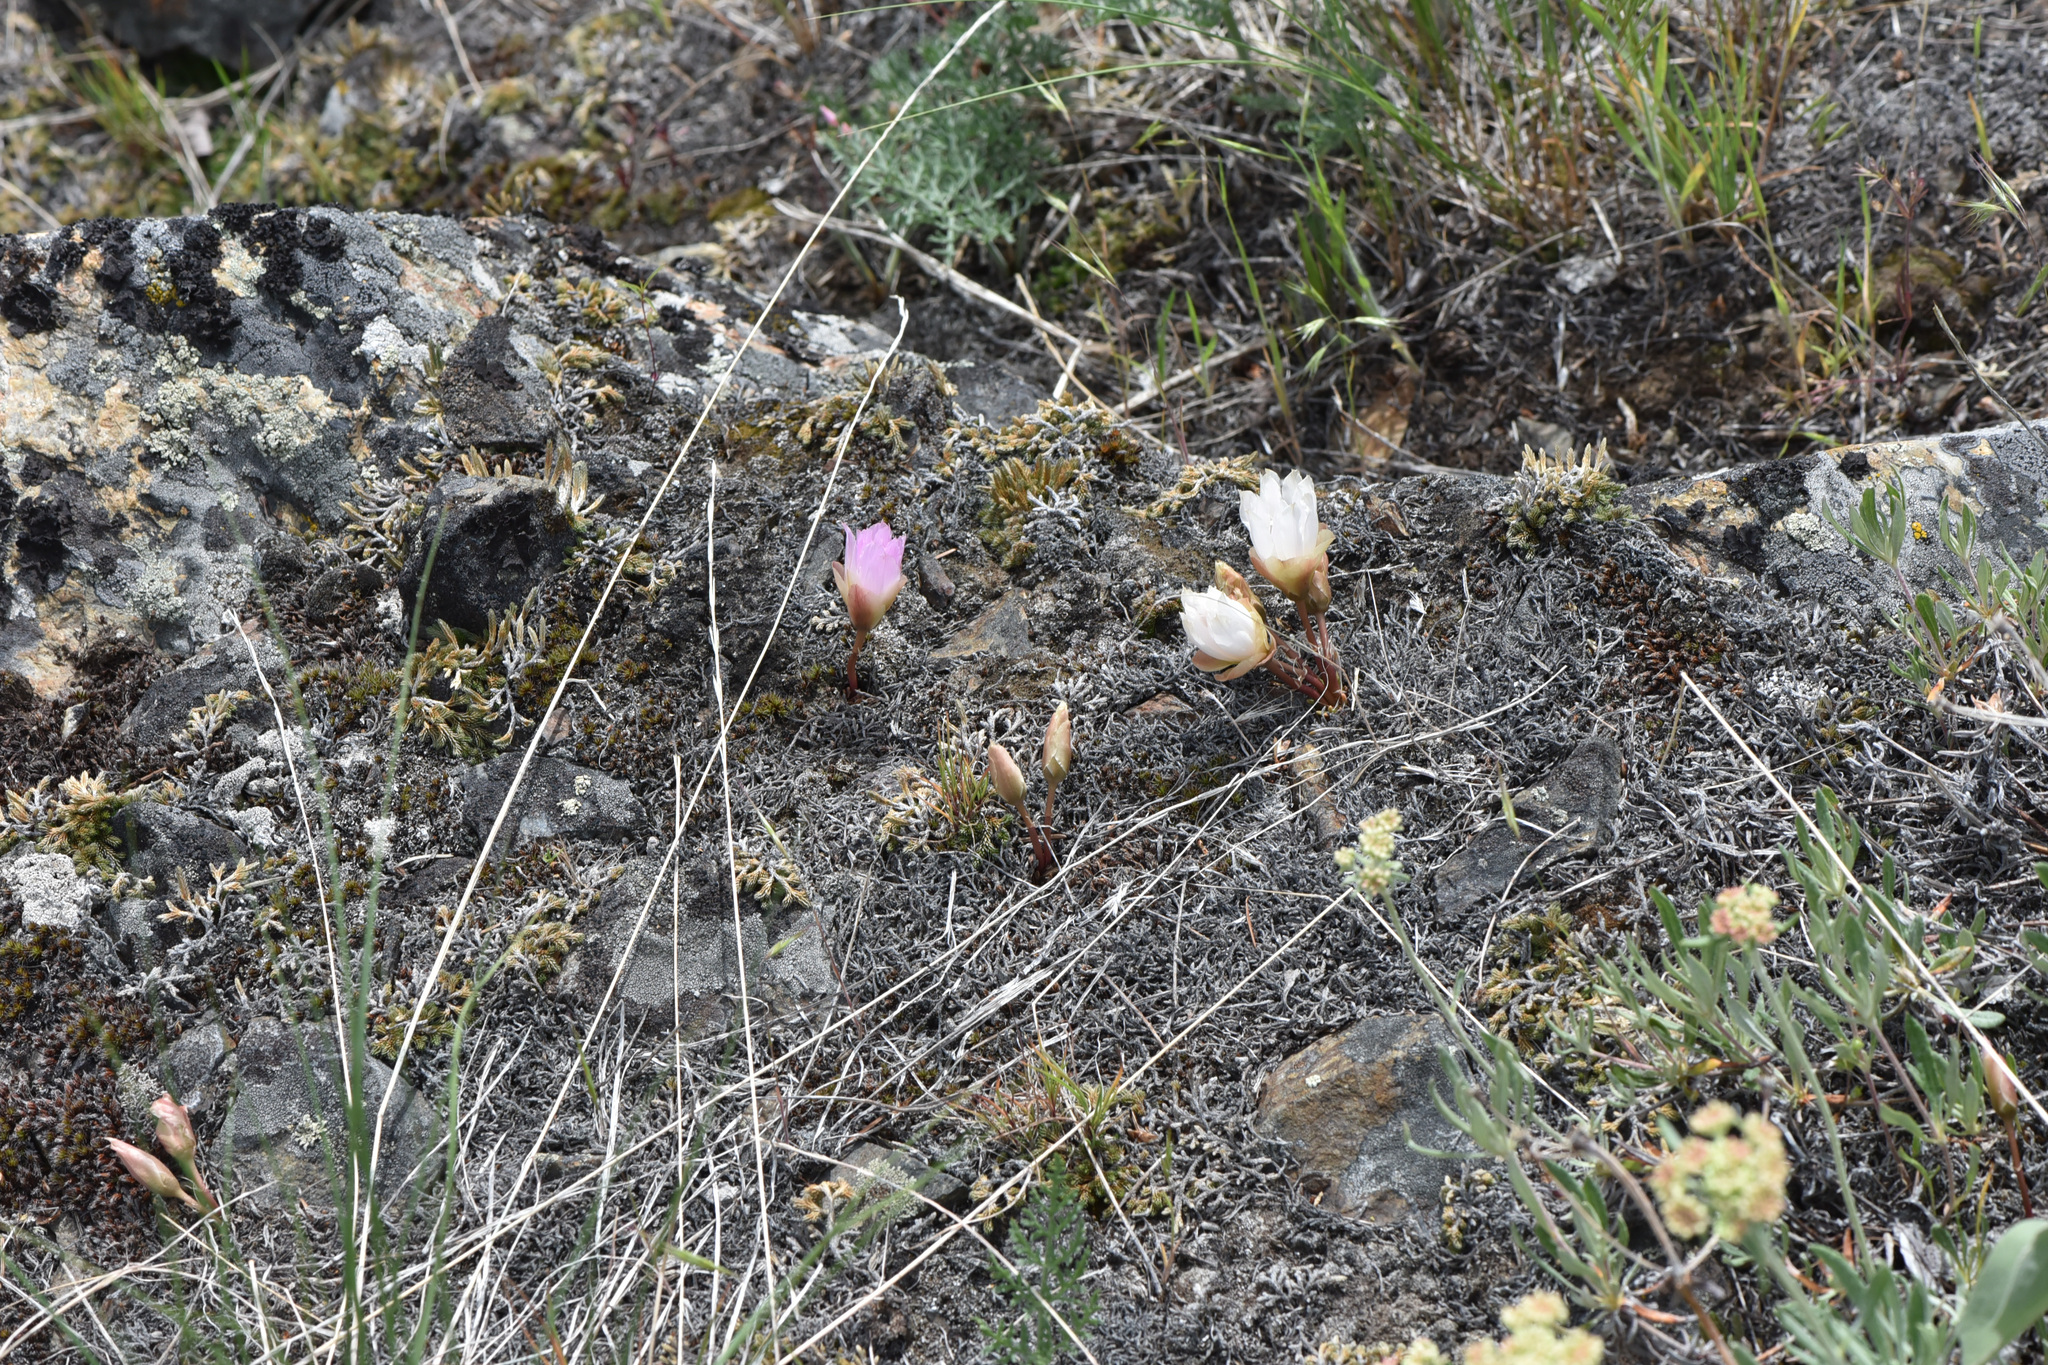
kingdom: Plantae
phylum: Tracheophyta
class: Magnoliopsida
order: Caryophyllales
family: Montiaceae
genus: Lewisia
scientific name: Lewisia rediviva
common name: Bitter-root
